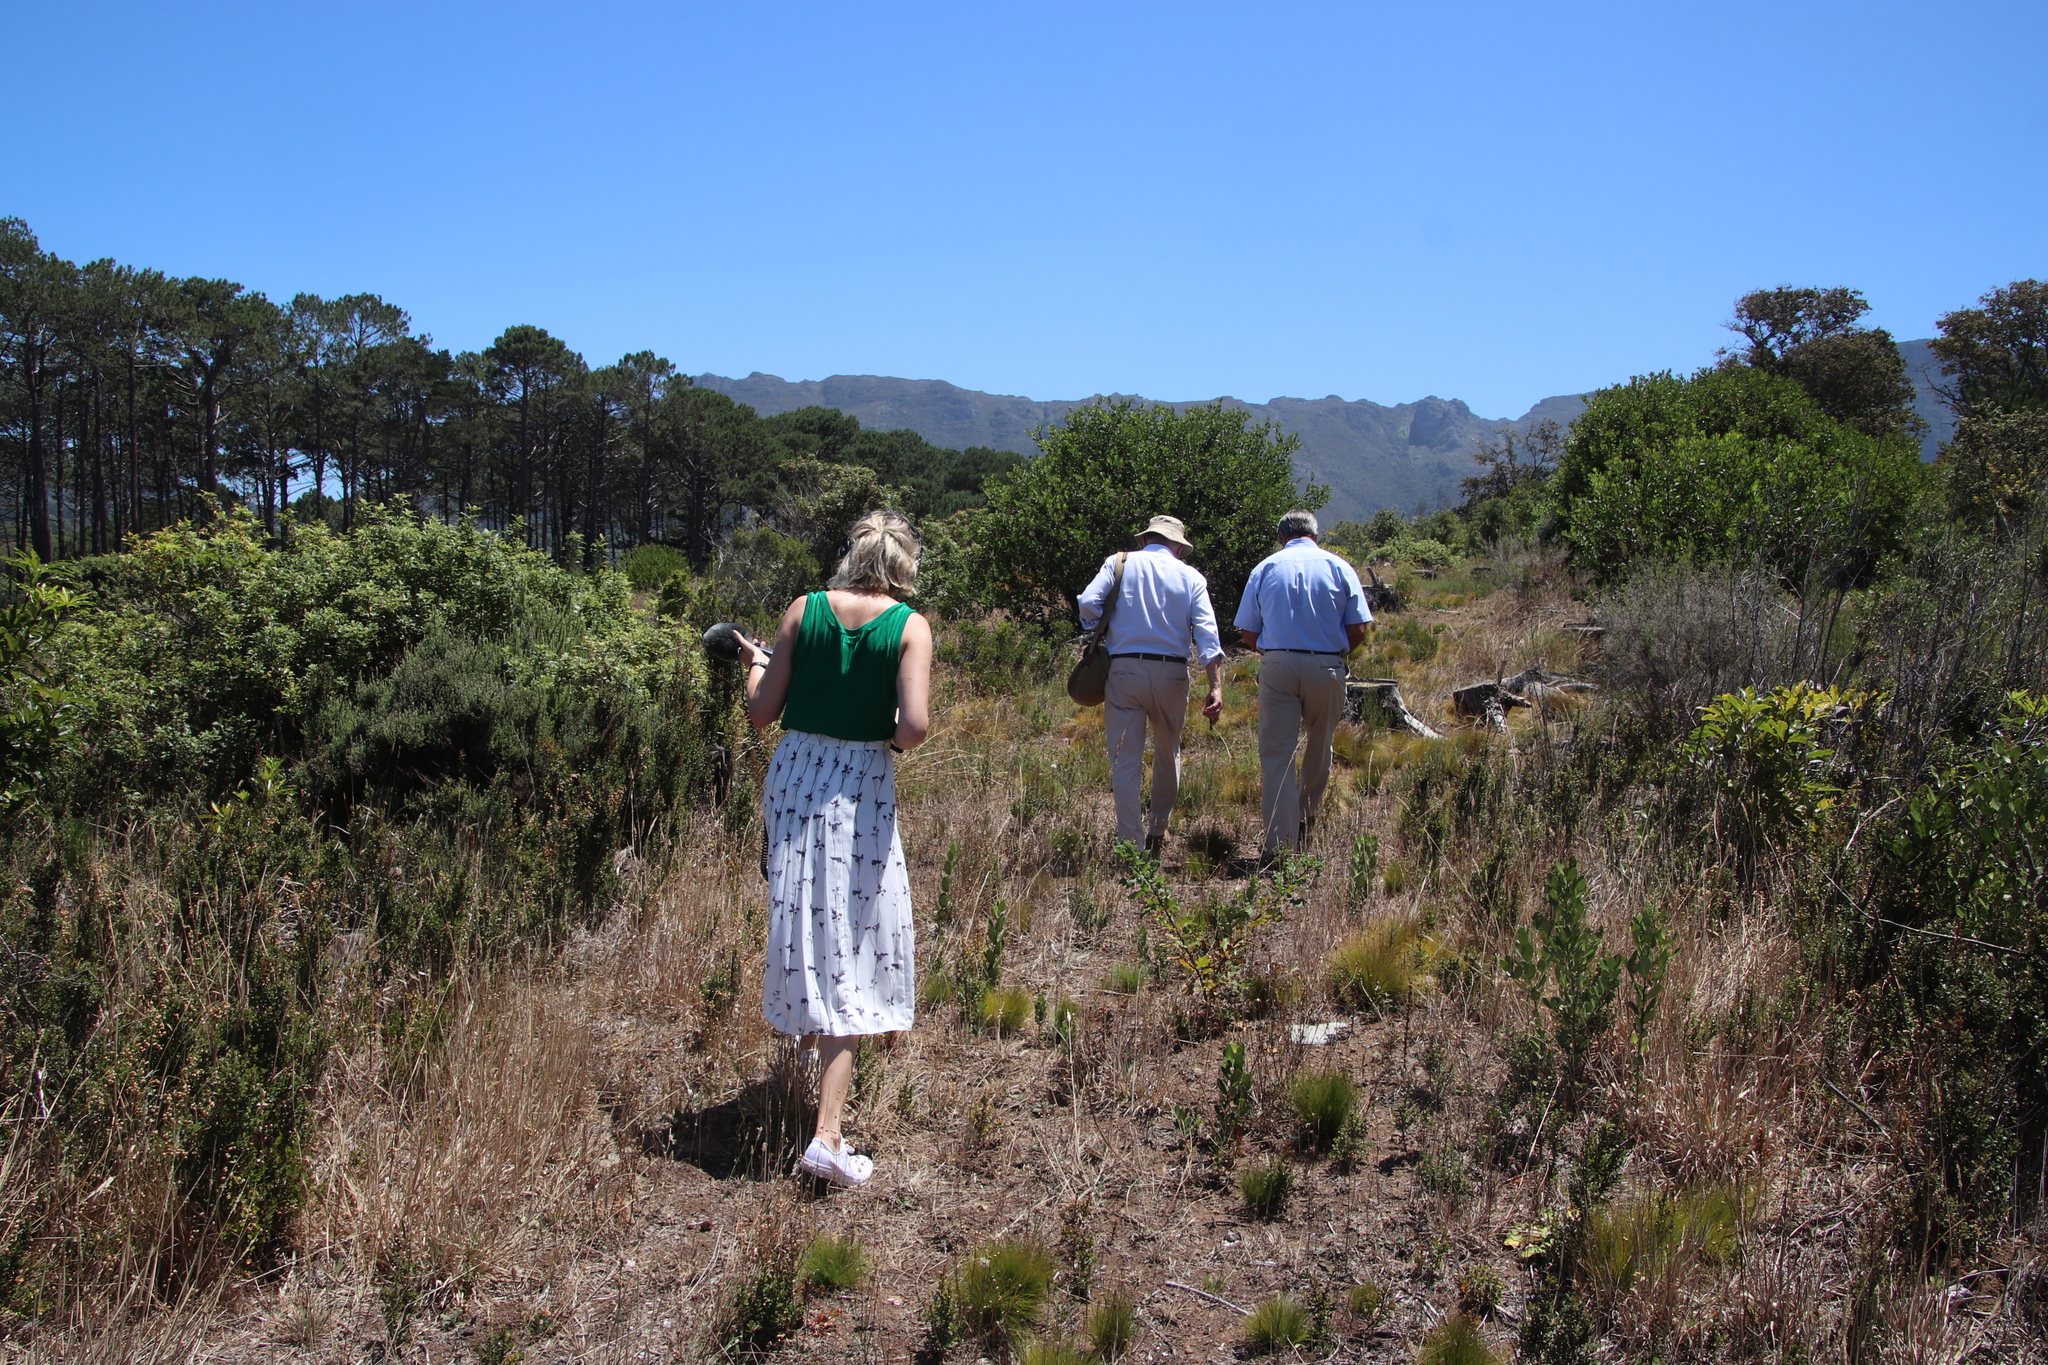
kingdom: Plantae
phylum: Tracheophyta
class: Magnoliopsida
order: Fagales
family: Fagaceae
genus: Quercus
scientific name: Quercus robur
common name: Pedunculate oak
